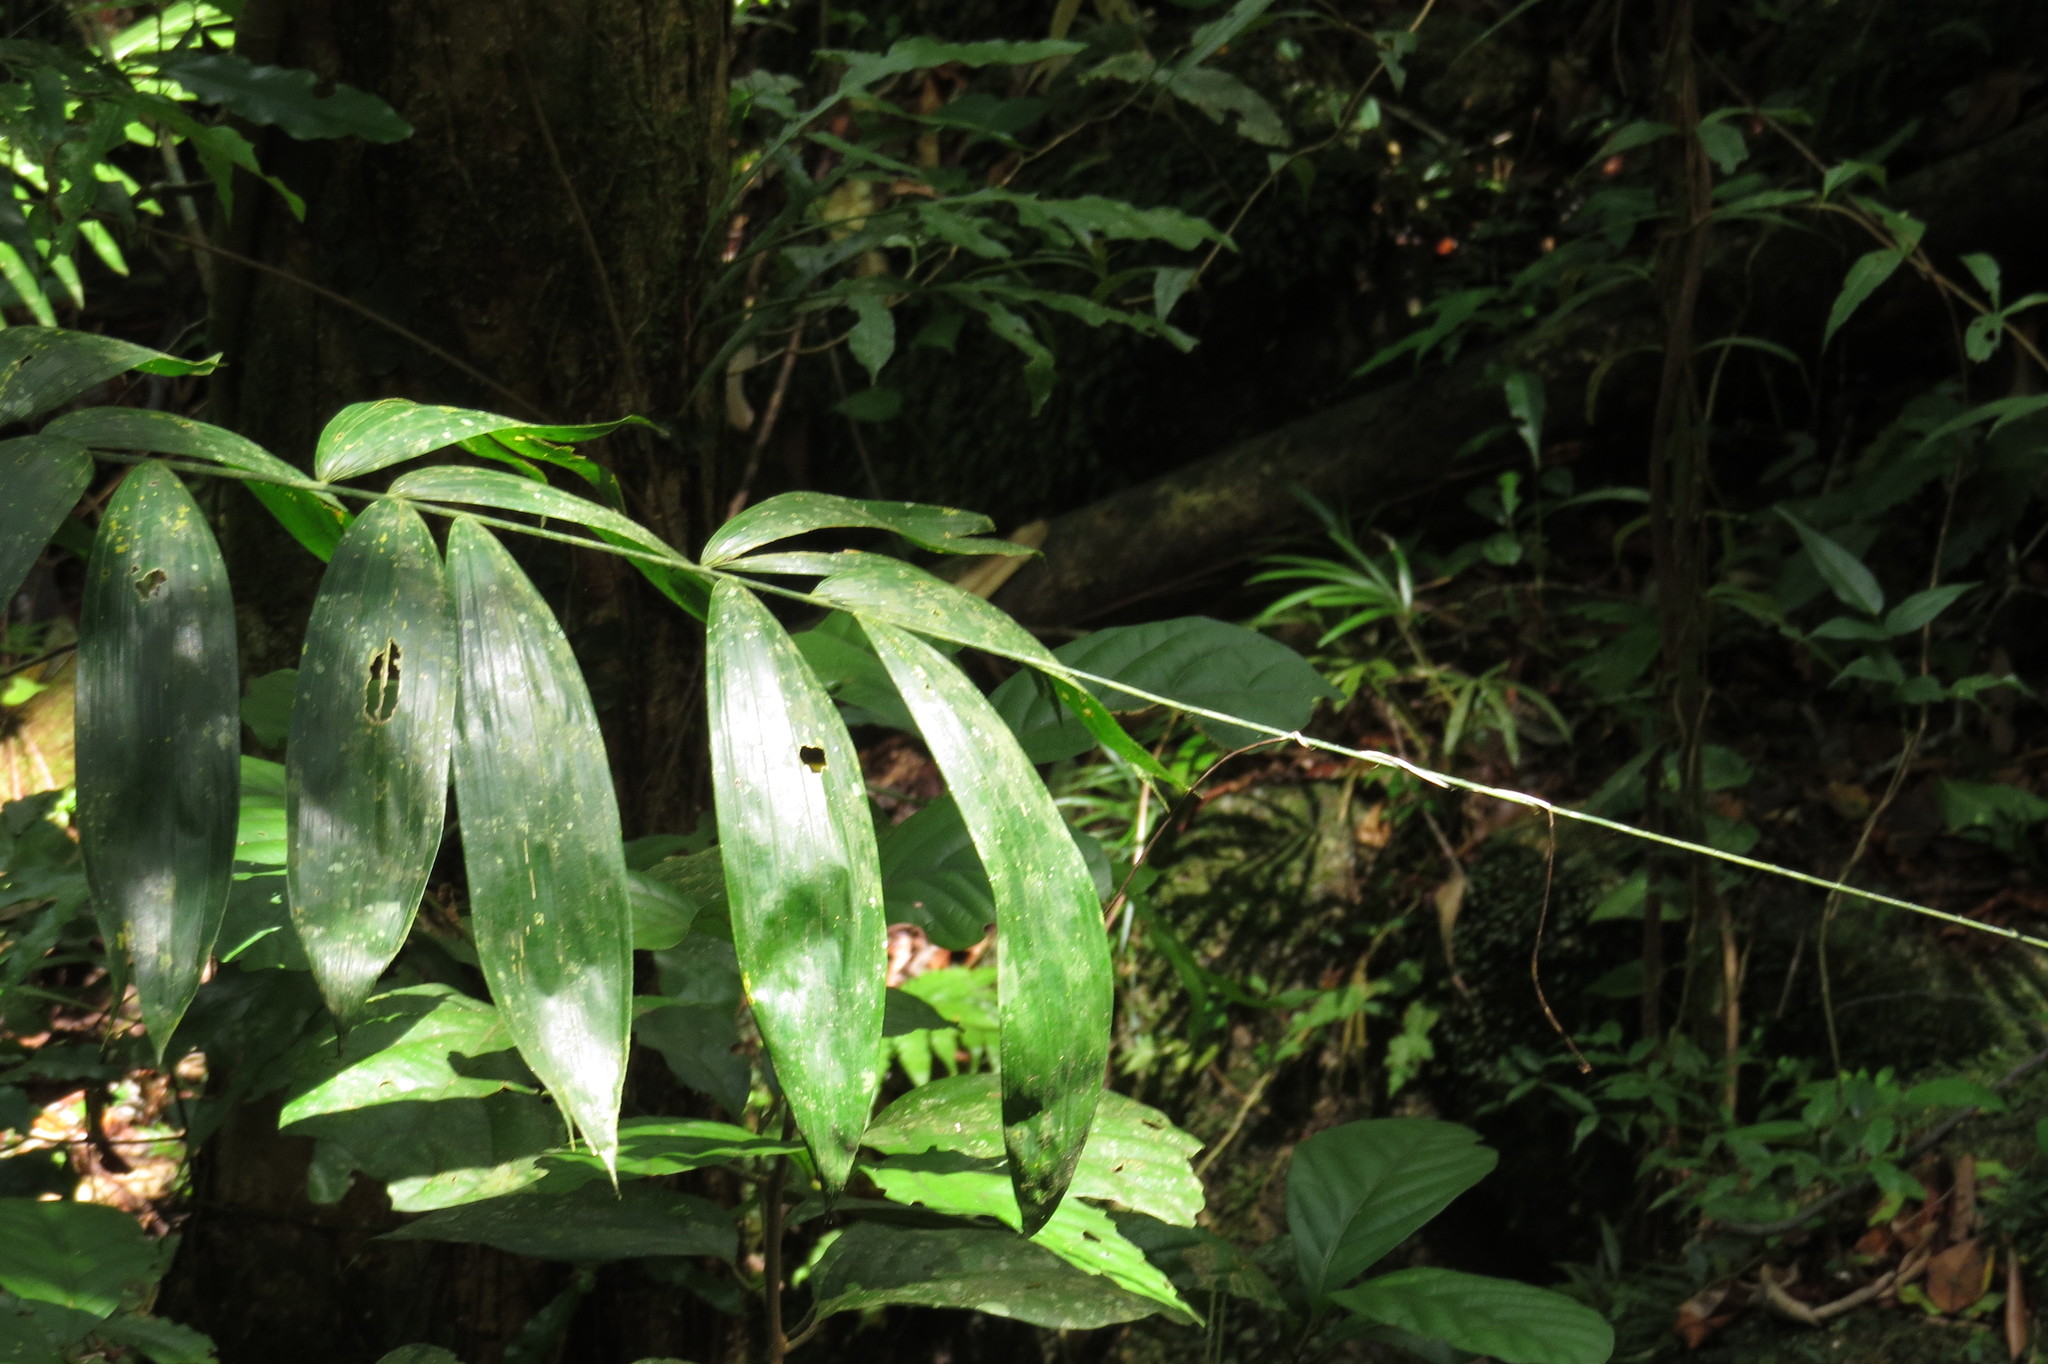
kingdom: Plantae
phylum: Tracheophyta
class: Liliopsida
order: Arecales
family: Arecaceae
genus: Calamus
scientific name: Calamus vitiensis
